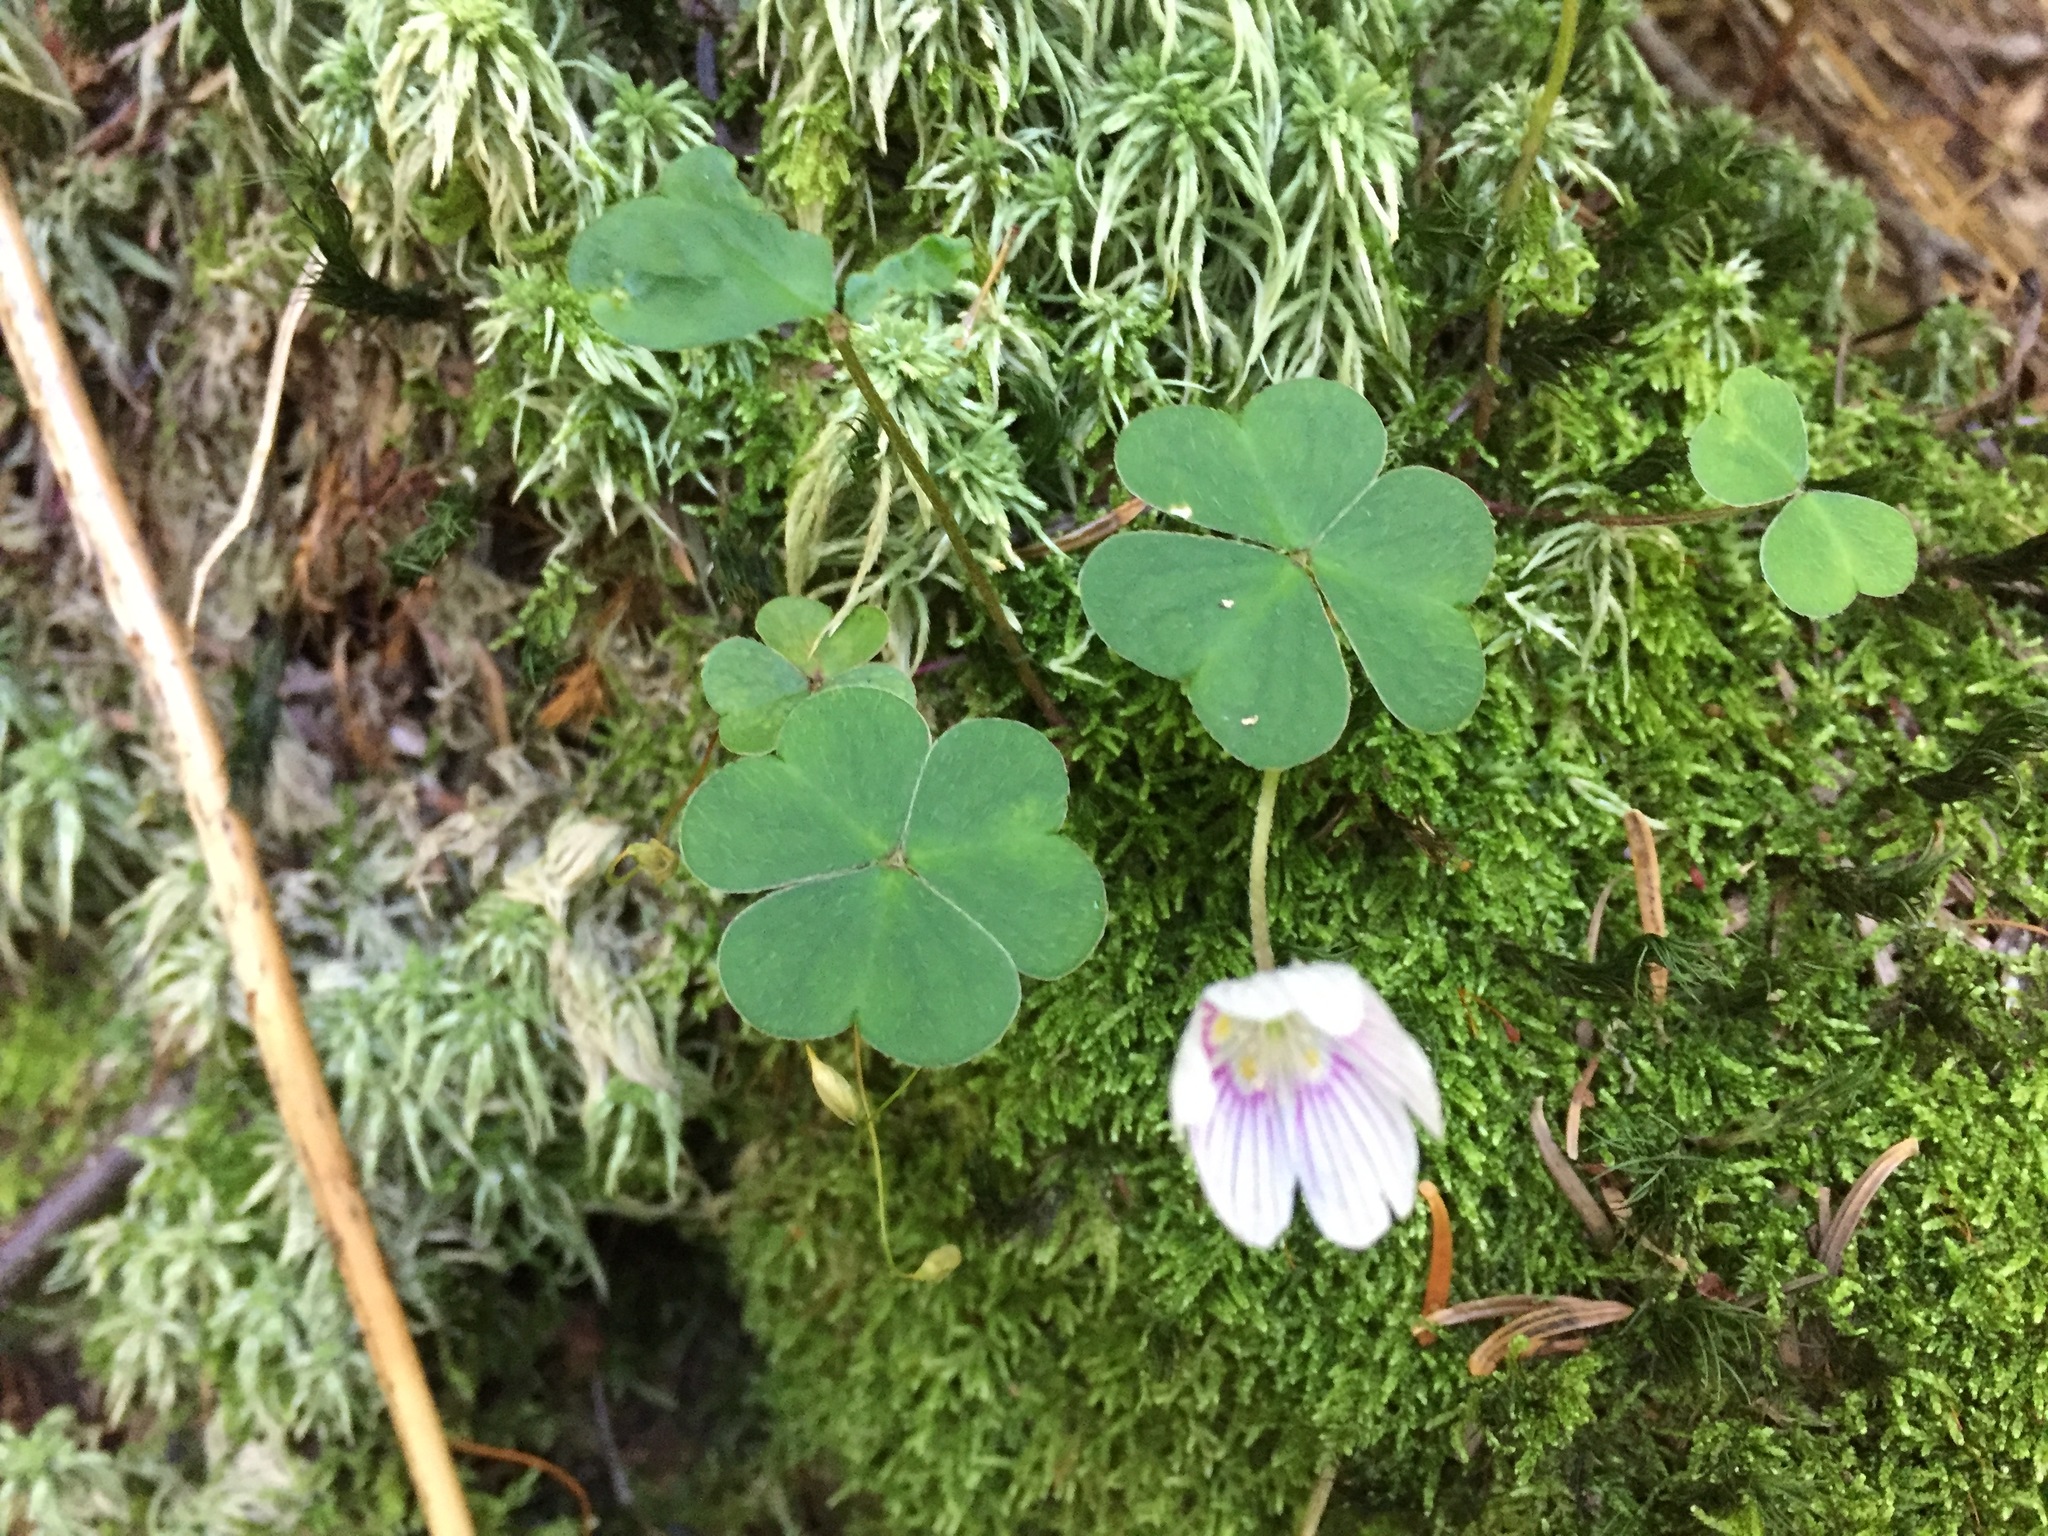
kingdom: Plantae
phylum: Tracheophyta
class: Magnoliopsida
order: Oxalidales
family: Oxalidaceae
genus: Oxalis
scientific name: Oxalis montana
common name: American wood-sorrel
